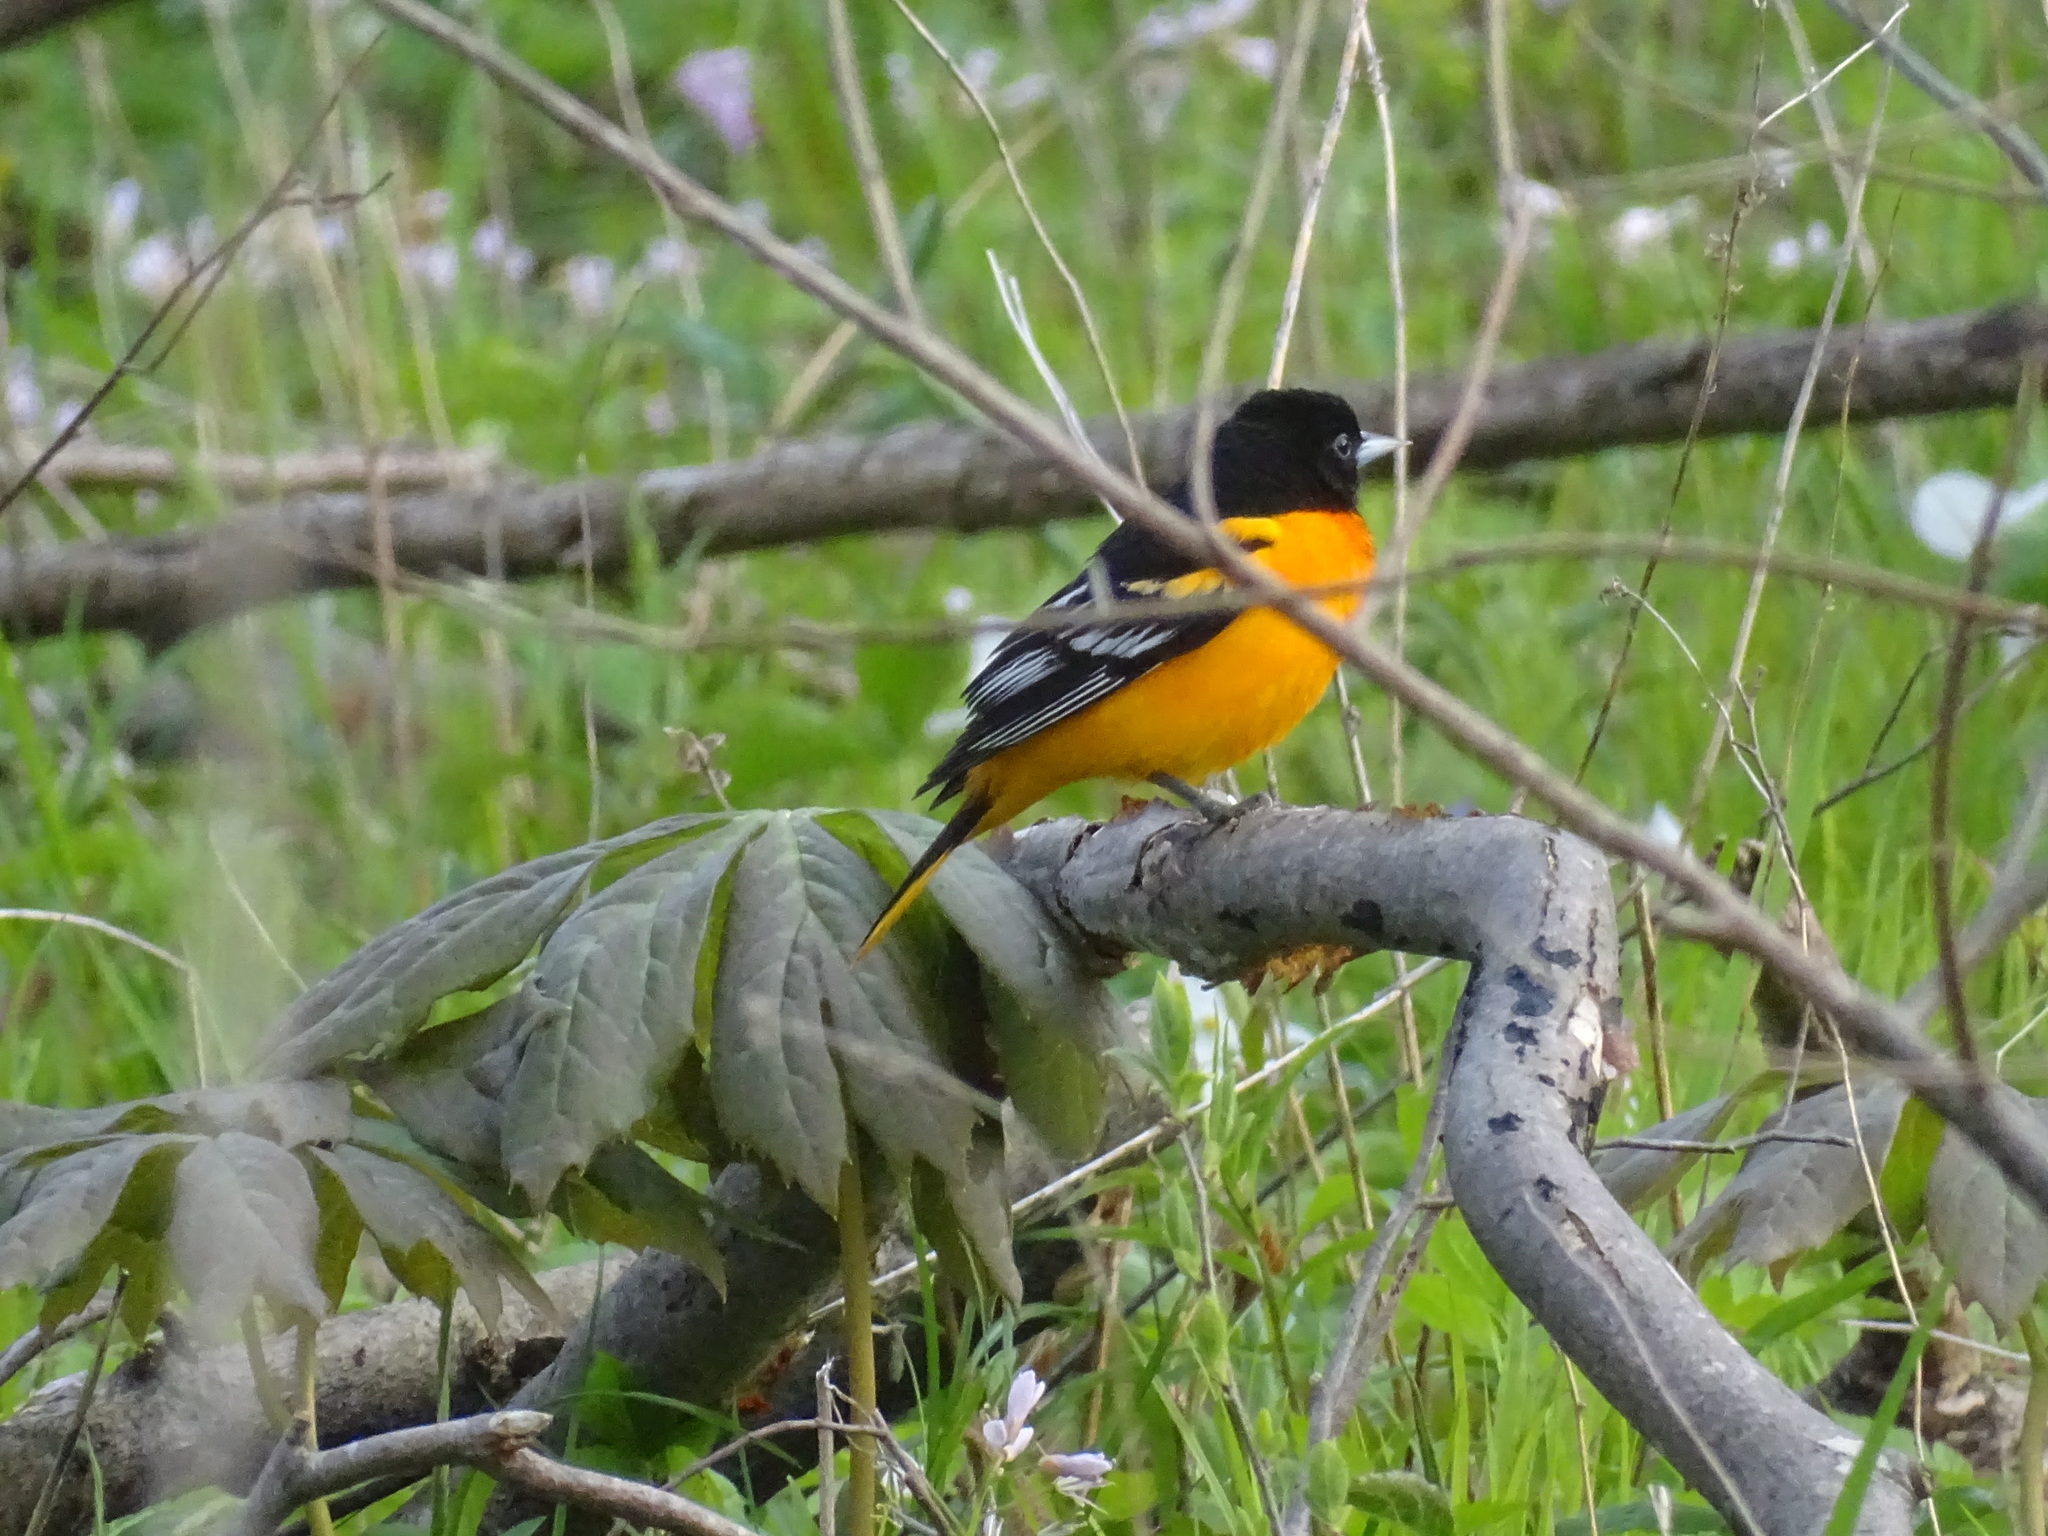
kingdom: Animalia
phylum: Chordata
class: Aves
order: Passeriformes
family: Icteridae
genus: Icterus
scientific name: Icterus galbula
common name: Baltimore oriole
